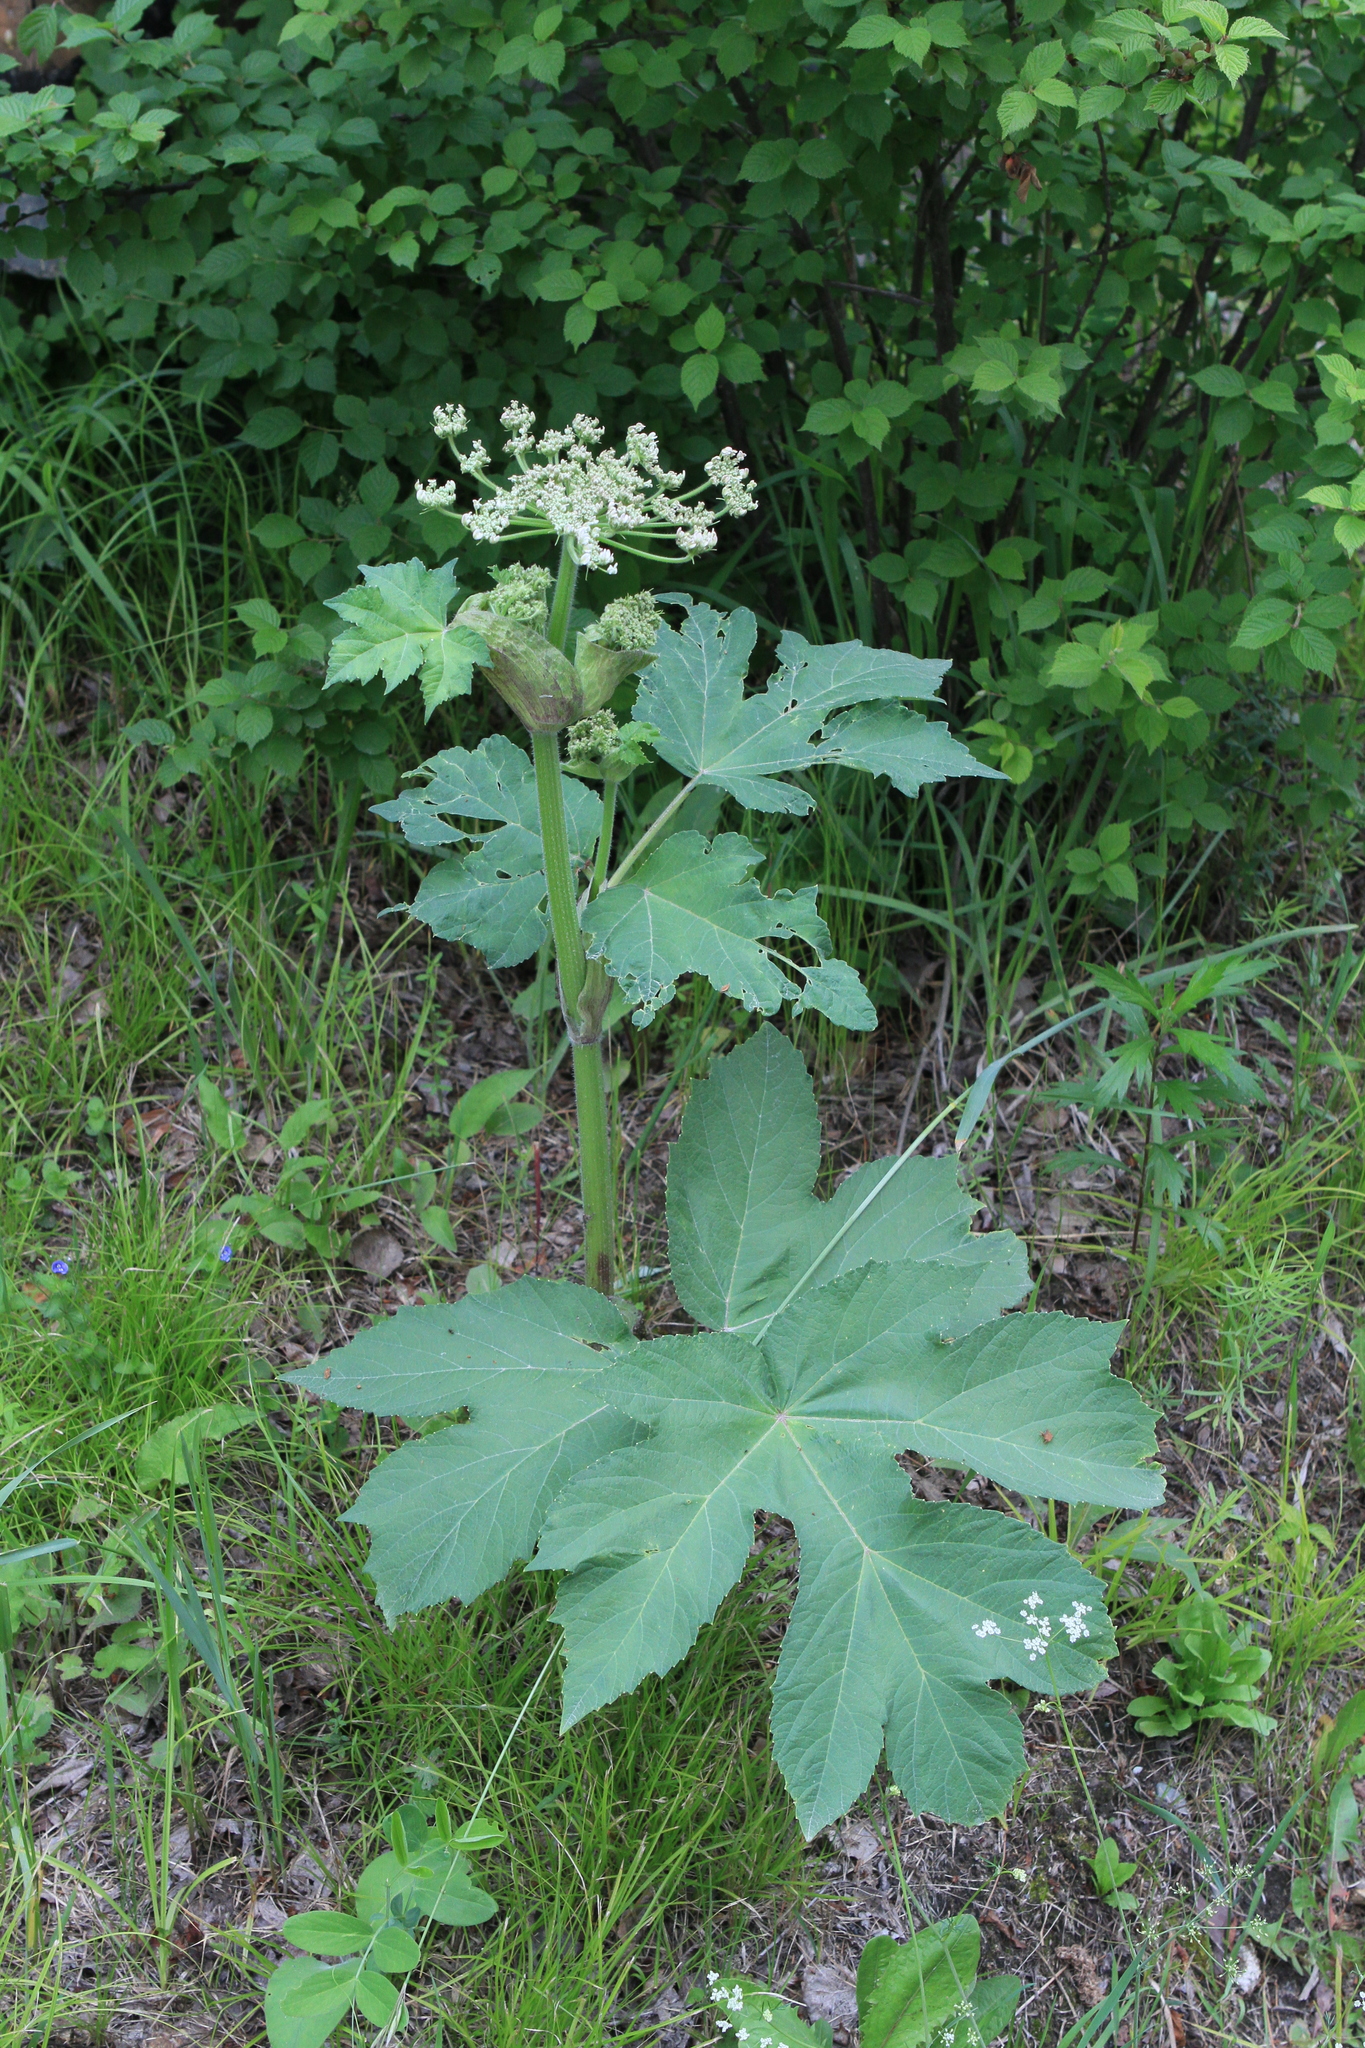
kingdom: Plantae
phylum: Tracheophyta
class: Magnoliopsida
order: Apiales
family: Apiaceae
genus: Heracleum
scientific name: Heracleum dissectum
